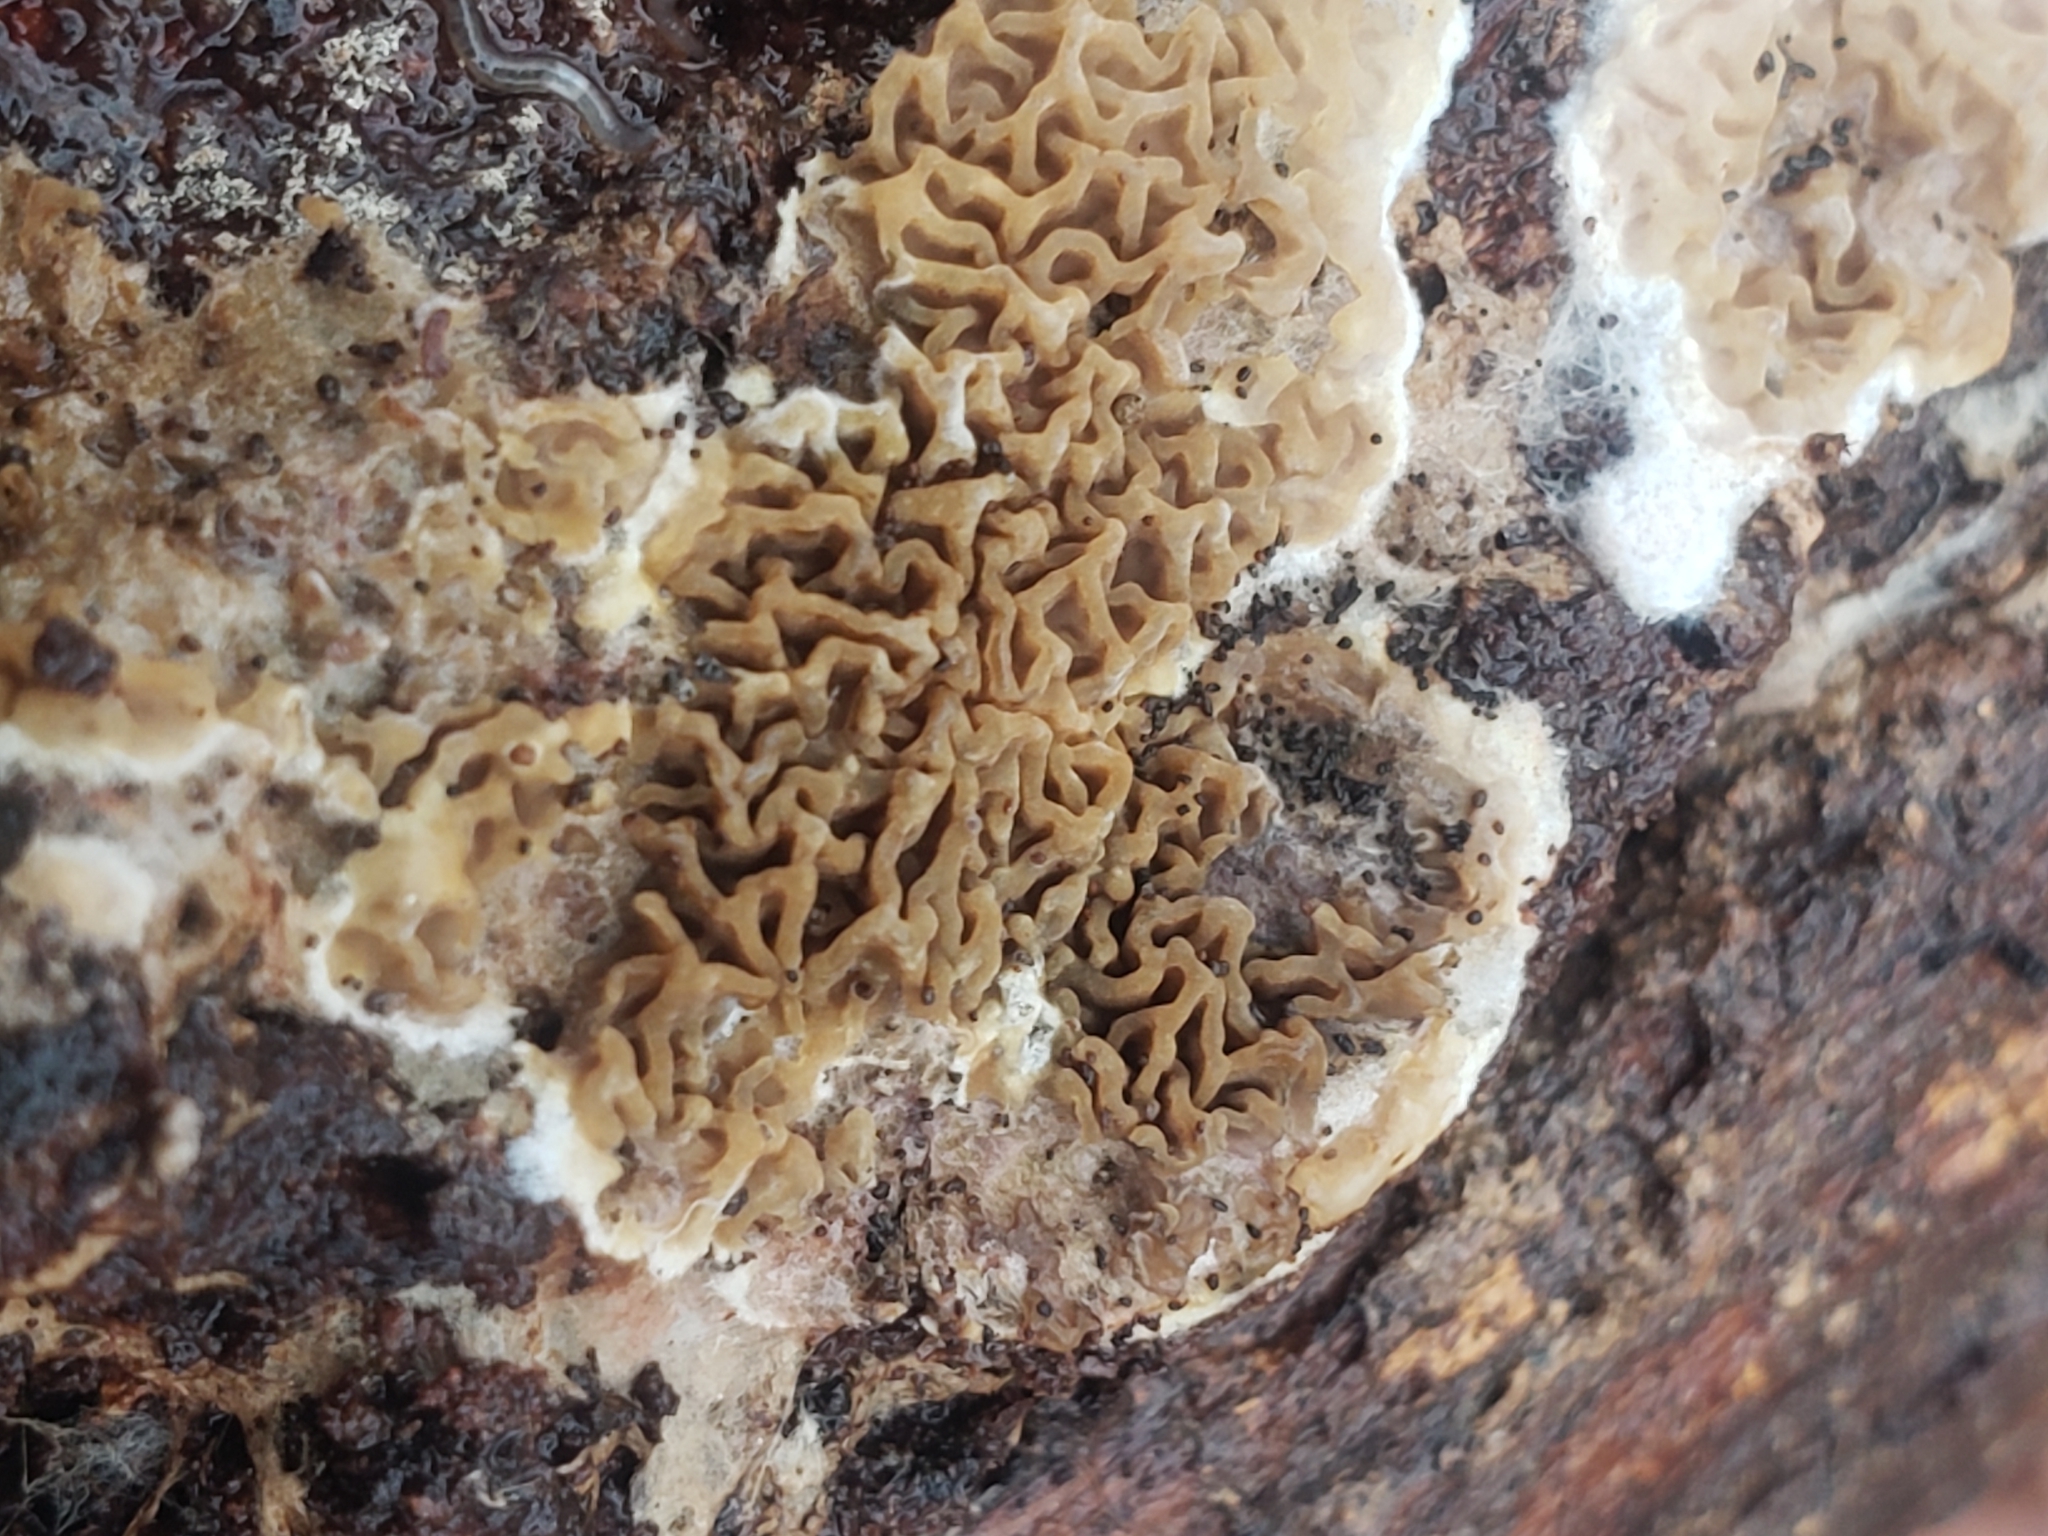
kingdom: Fungi
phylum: Basidiomycota
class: Agaricomycetes
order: Boletales
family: Serpulaceae
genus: Serpula
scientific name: Serpula himantioides
